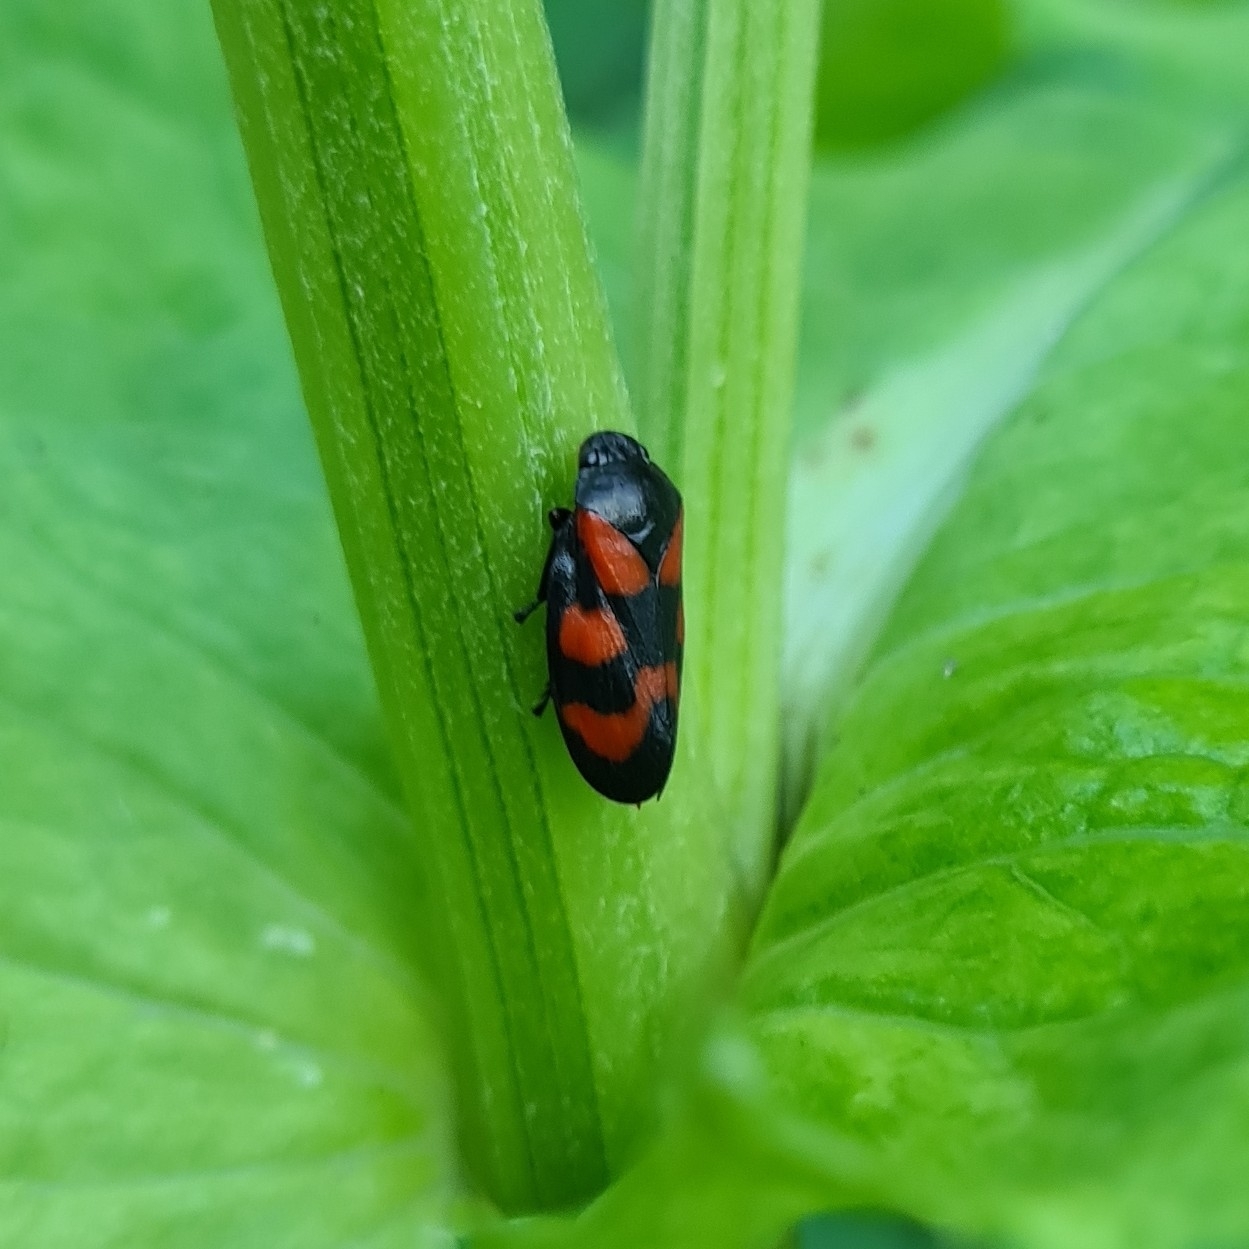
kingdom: Animalia
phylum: Arthropoda
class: Insecta
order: Hemiptera
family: Cercopidae
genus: Cercopis
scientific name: Cercopis vulnerata
